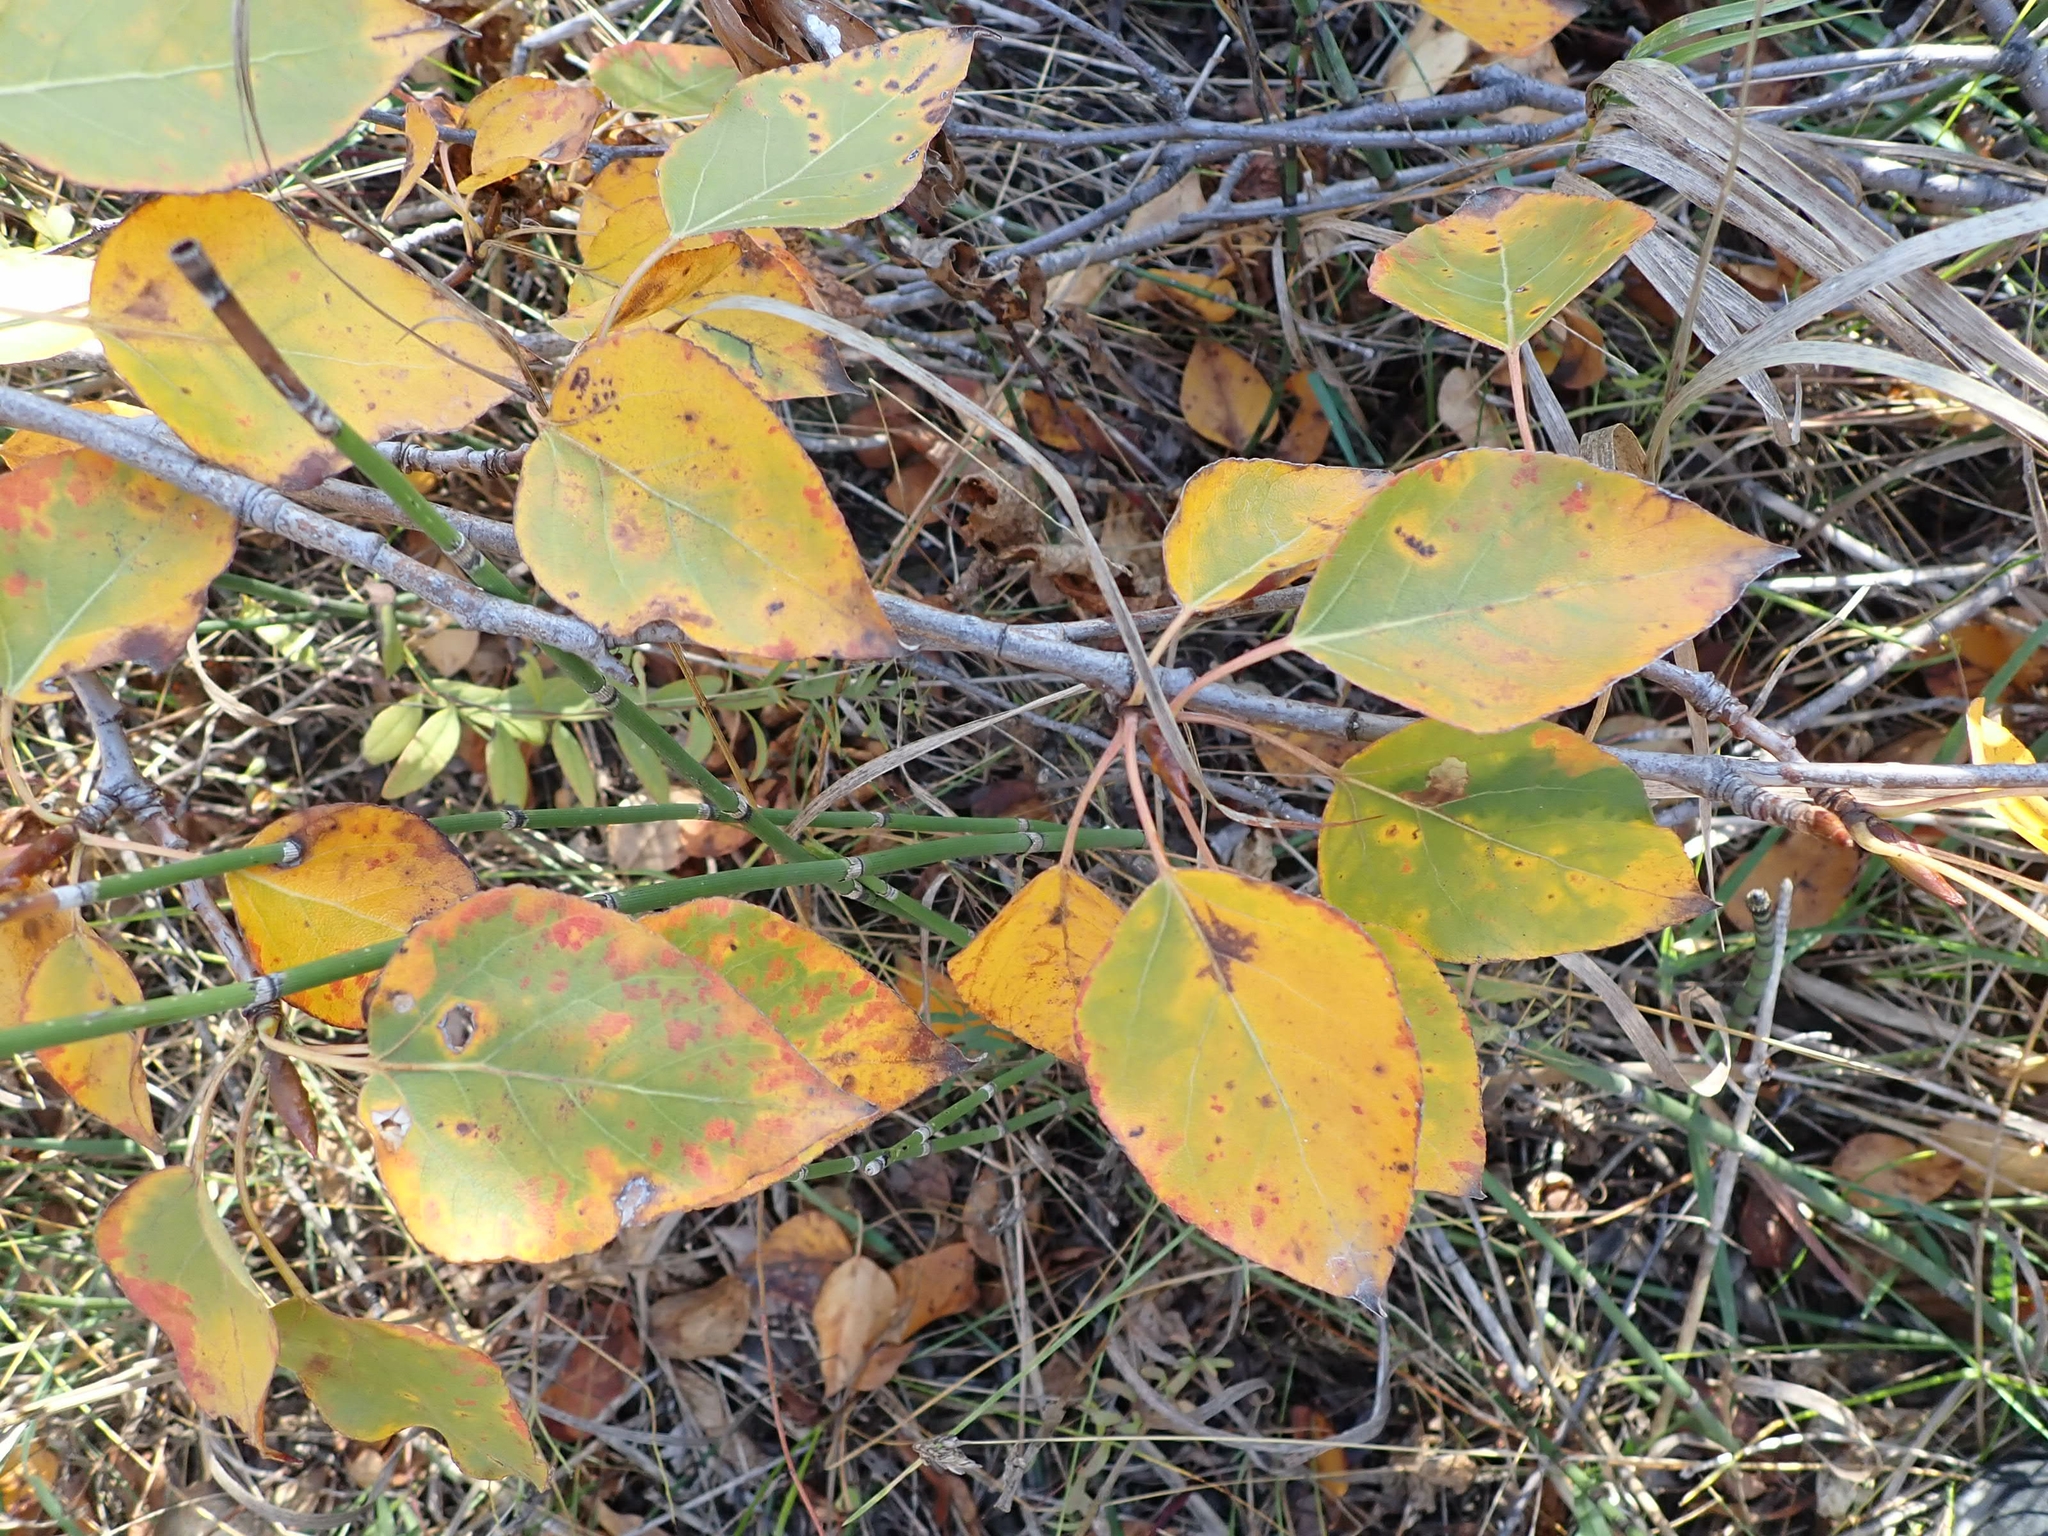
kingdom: Plantae
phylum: Tracheophyta
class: Magnoliopsida
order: Malpighiales
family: Salicaceae
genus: Populus
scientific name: Populus balsamifera
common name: Balsam poplar
